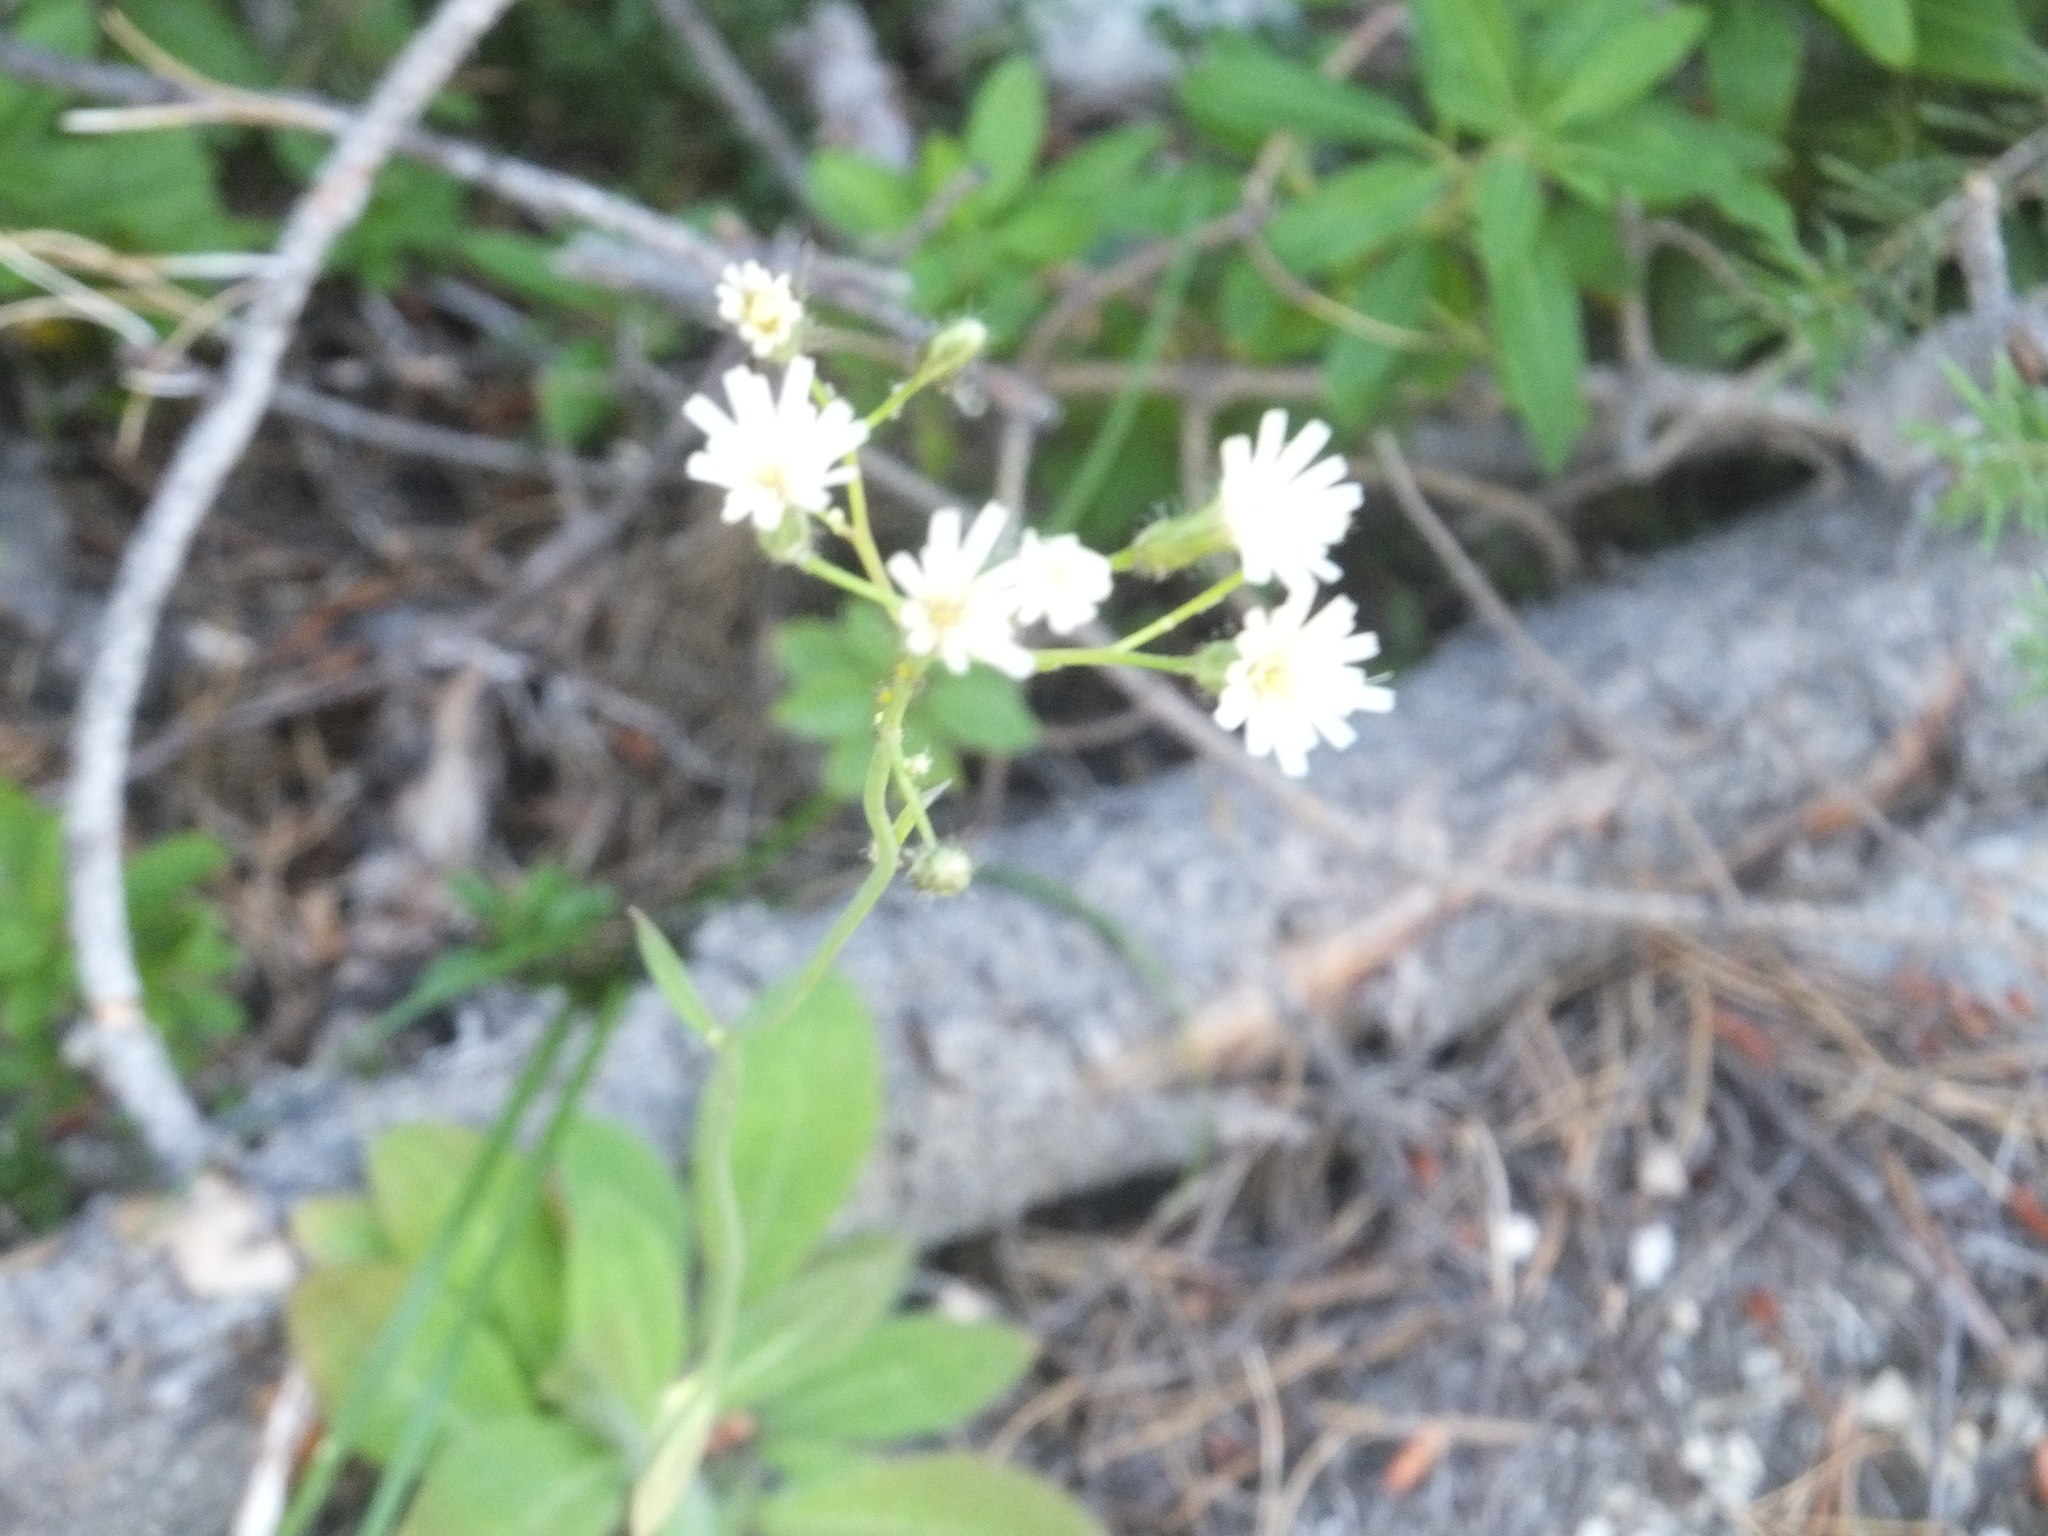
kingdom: Plantae
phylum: Tracheophyta
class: Magnoliopsida
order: Asterales
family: Asteraceae
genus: Hieracium
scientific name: Hieracium albiflorum
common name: White hawkweed
